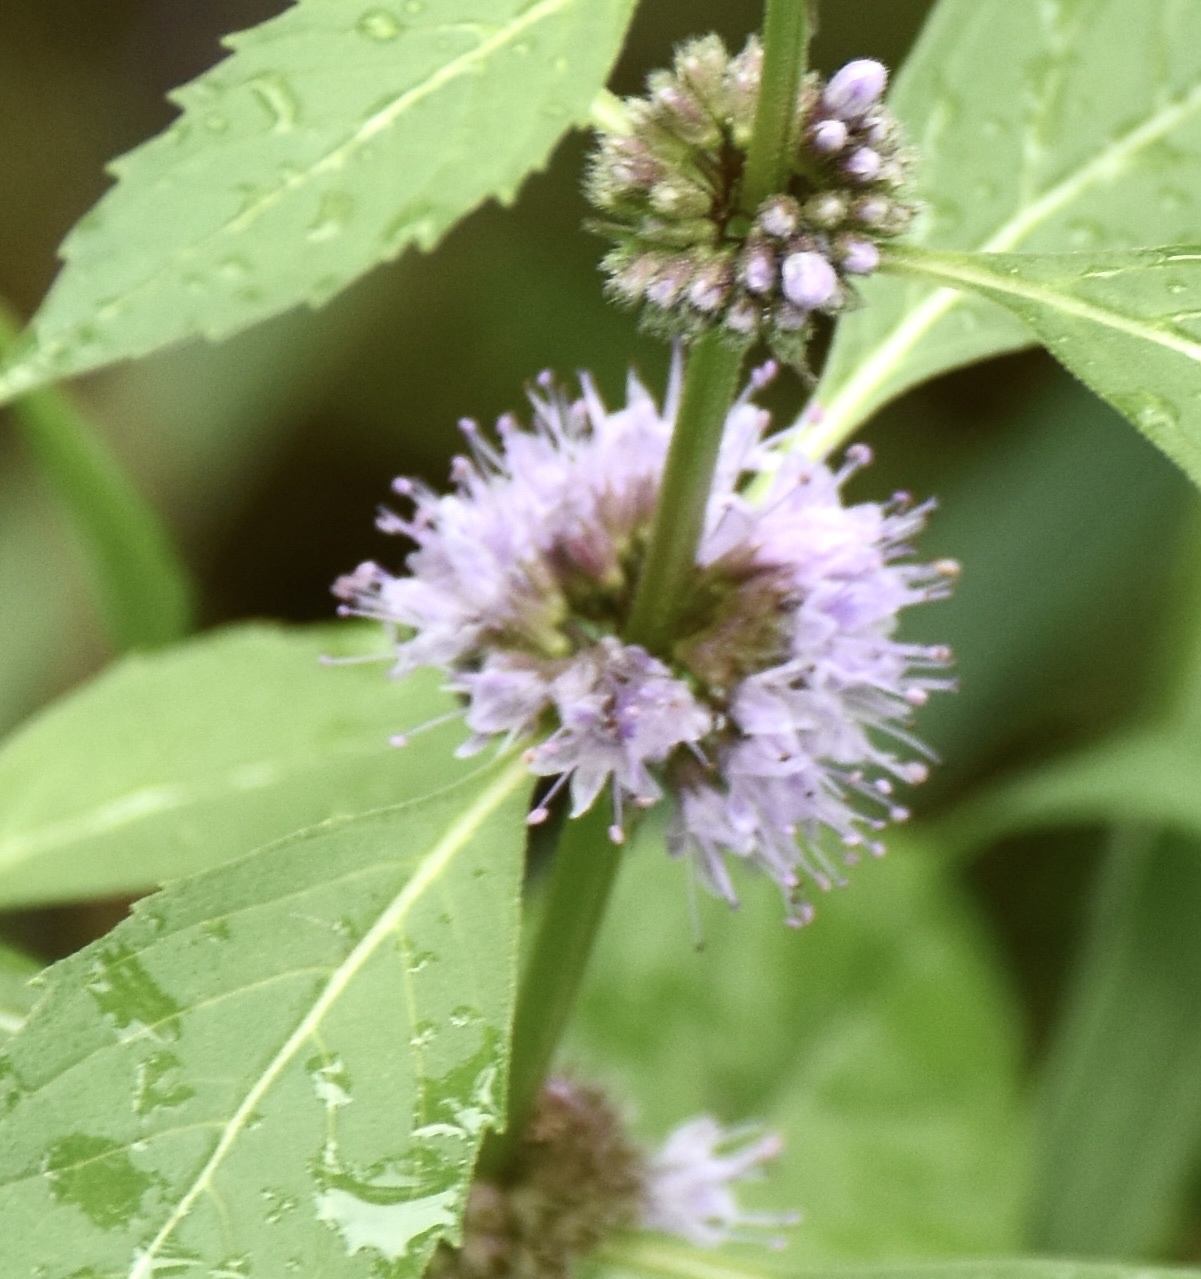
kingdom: Plantae
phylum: Tracheophyta
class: Magnoliopsida
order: Lamiales
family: Lamiaceae
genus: Mentha
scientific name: Mentha canadensis
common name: American corn mint
